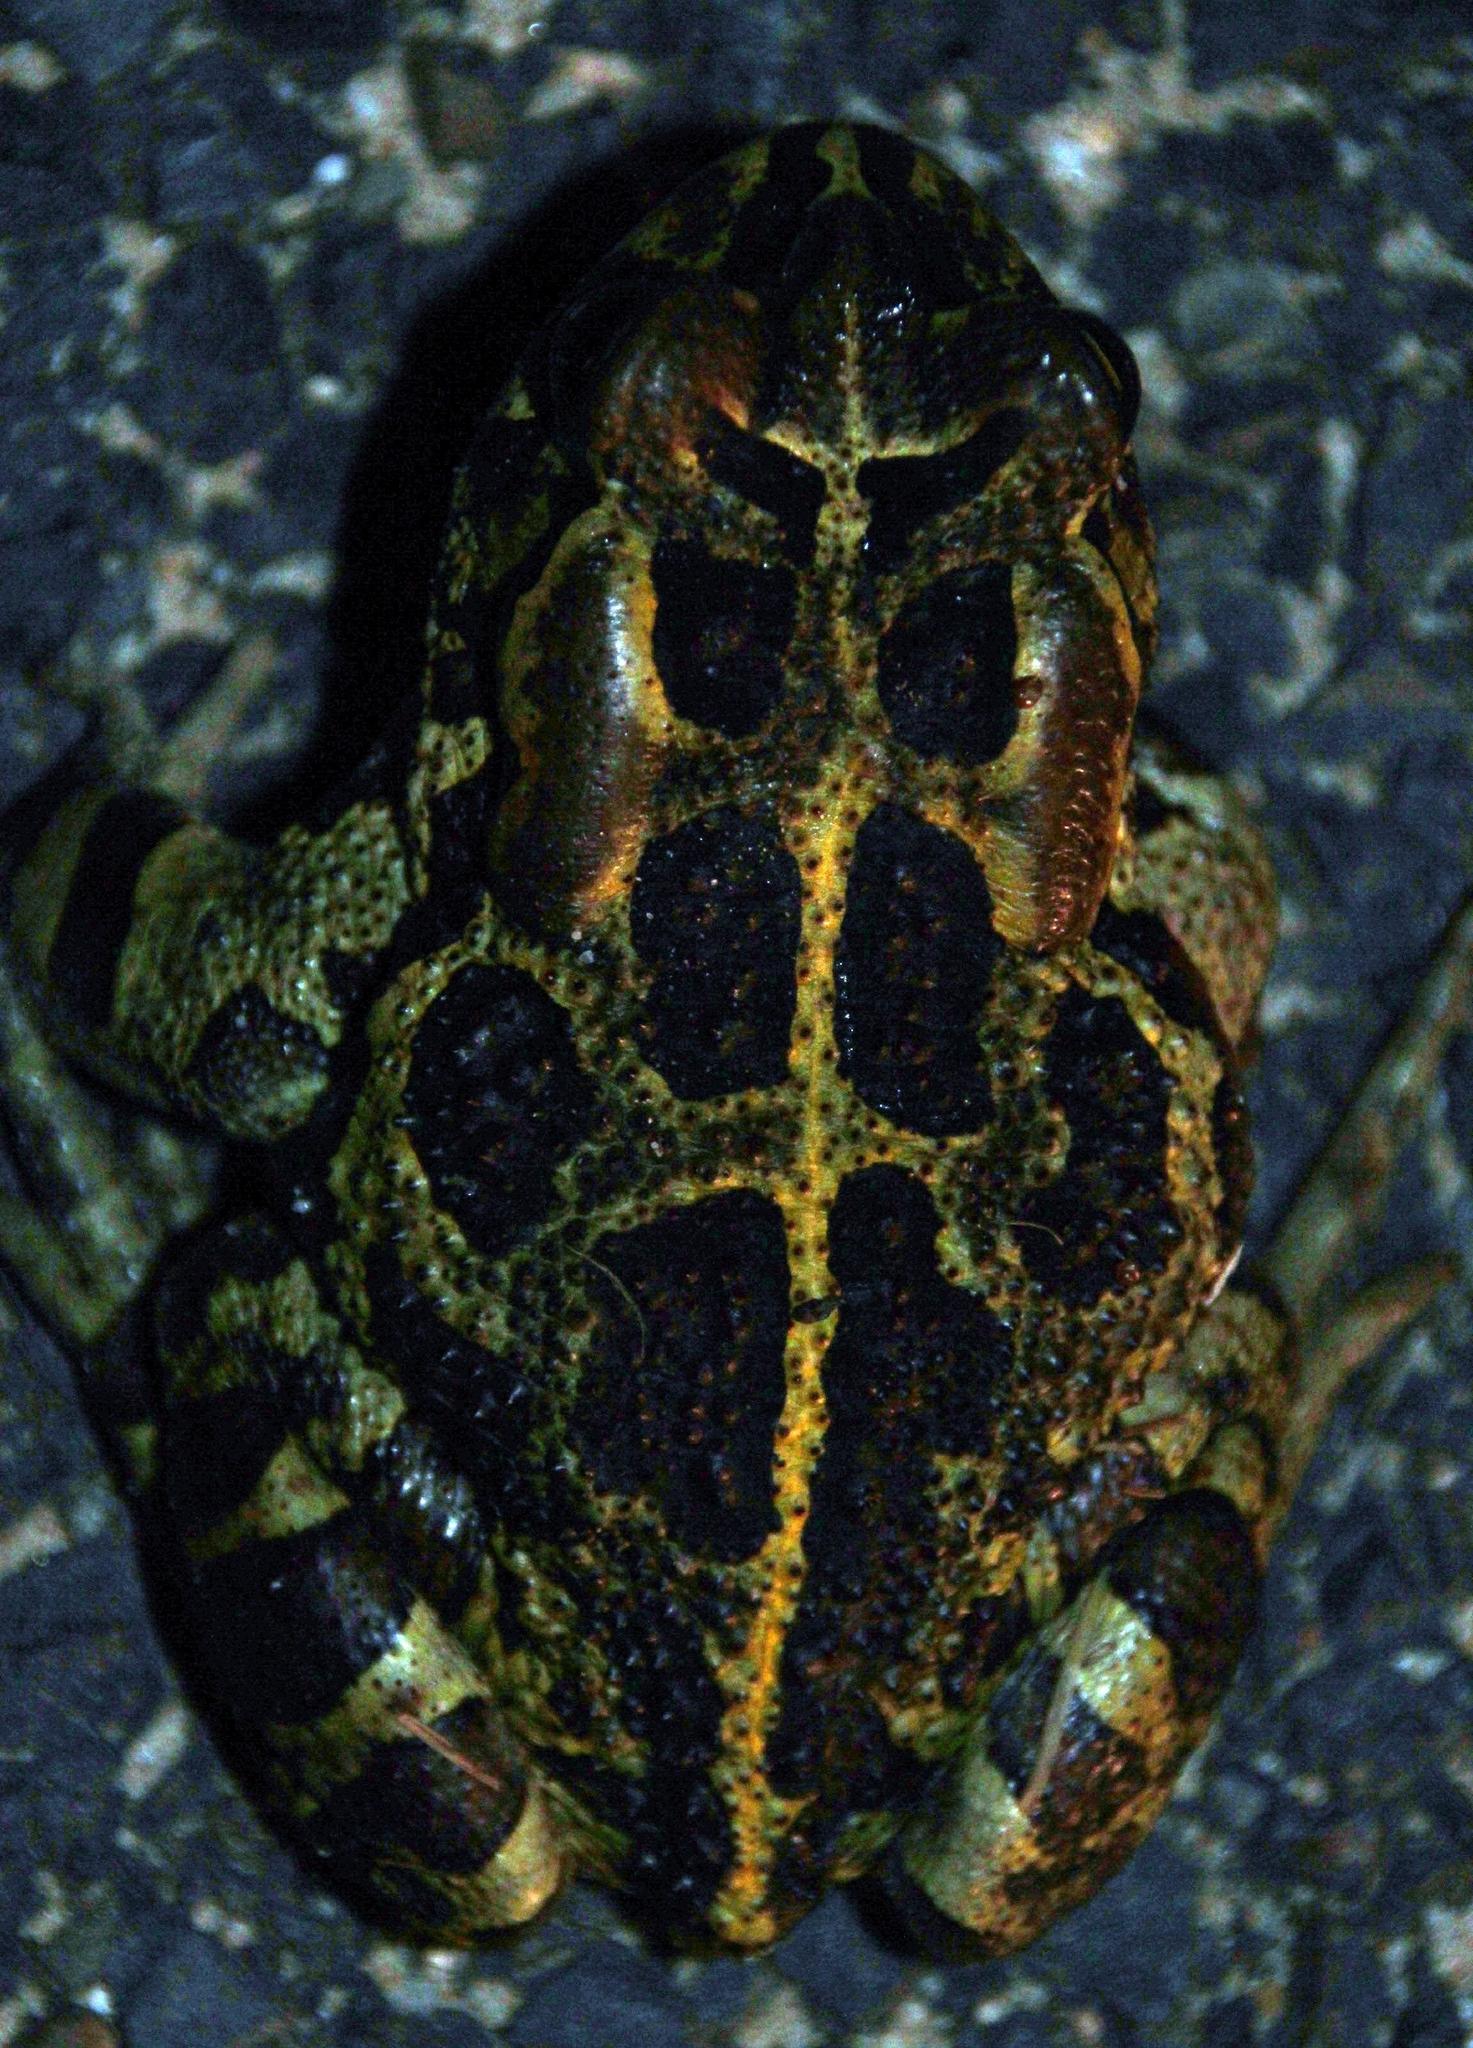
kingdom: Animalia
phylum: Chordata
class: Amphibia
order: Anura
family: Bufonidae
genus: Sclerophrys
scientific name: Sclerophrys pantherina
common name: Panther toad
